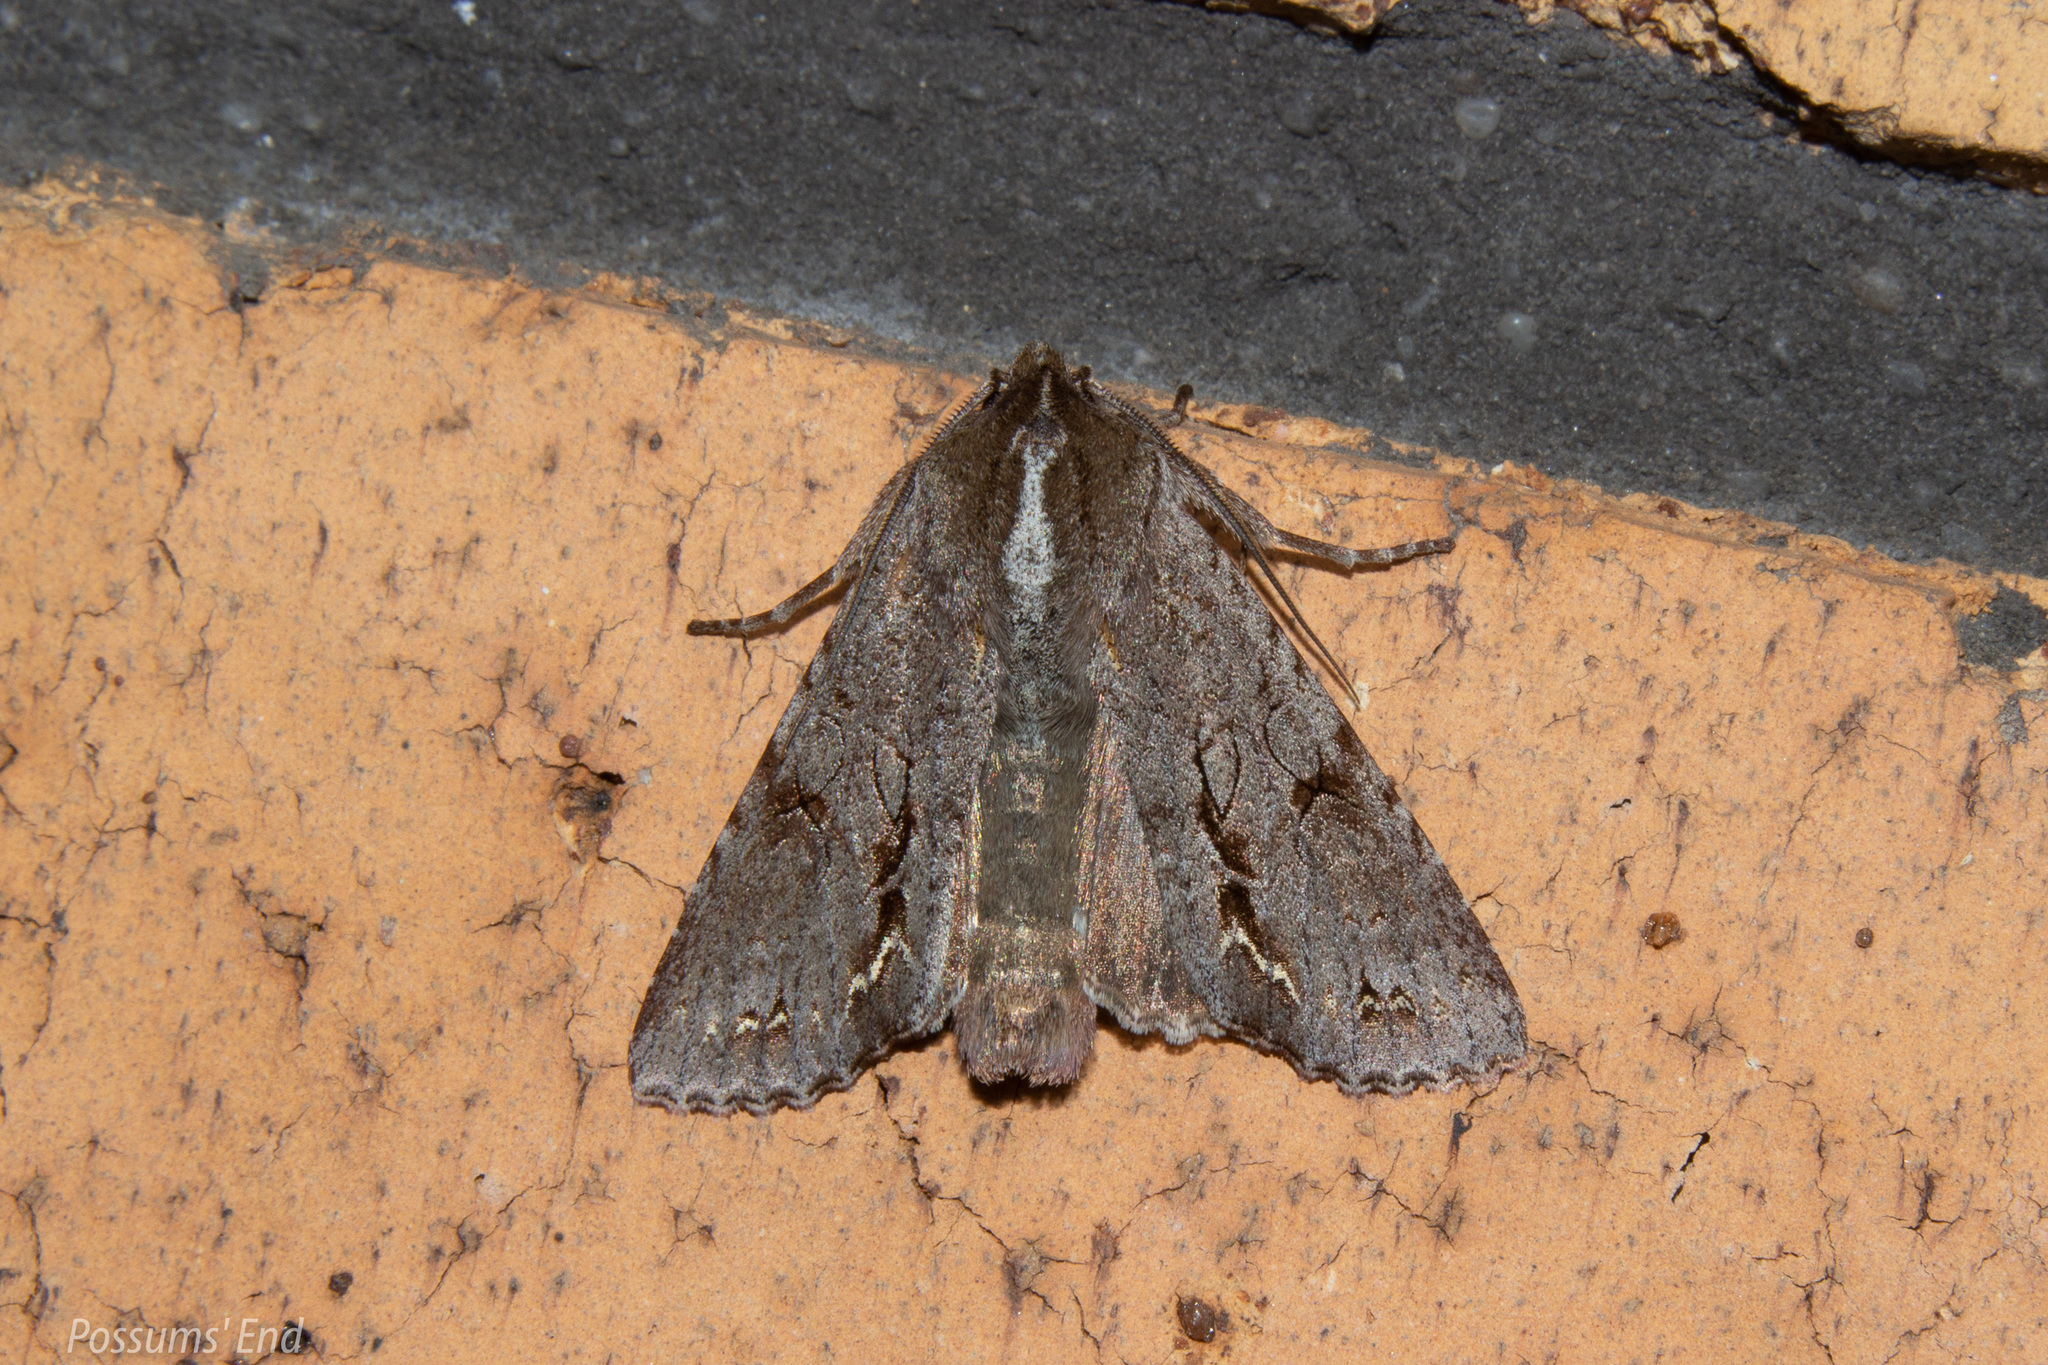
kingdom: Animalia
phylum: Arthropoda
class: Insecta
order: Lepidoptera
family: Noctuidae
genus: Ichneutica
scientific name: Ichneutica
